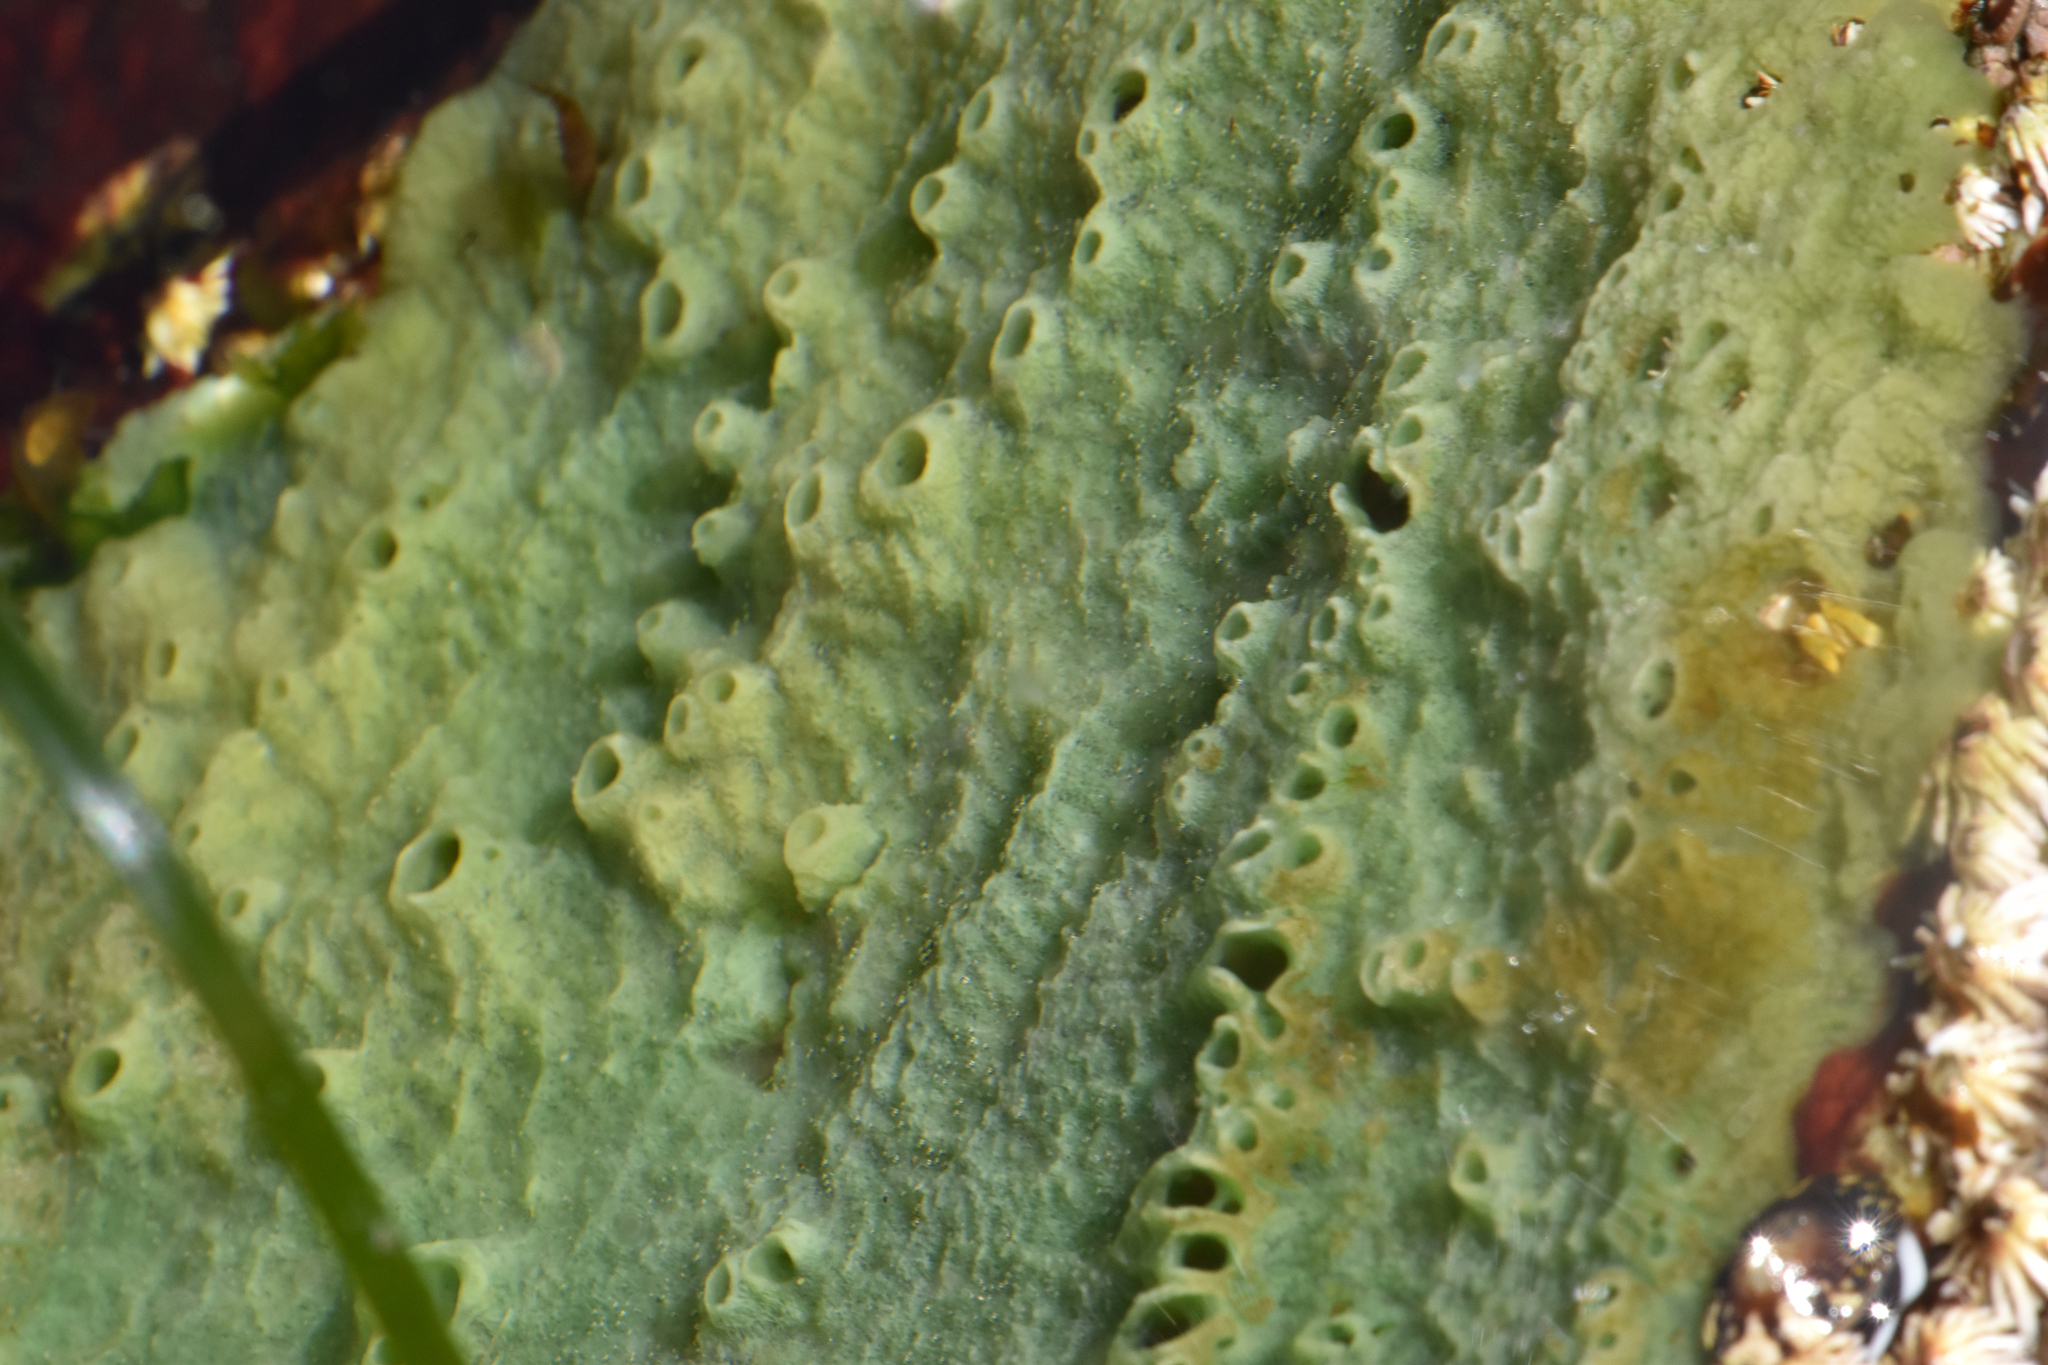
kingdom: Animalia
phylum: Porifera
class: Demospongiae
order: Suberitida
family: Halichondriidae
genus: Halichondria
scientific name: Halichondria panicea
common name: Breadcrumb sponge
